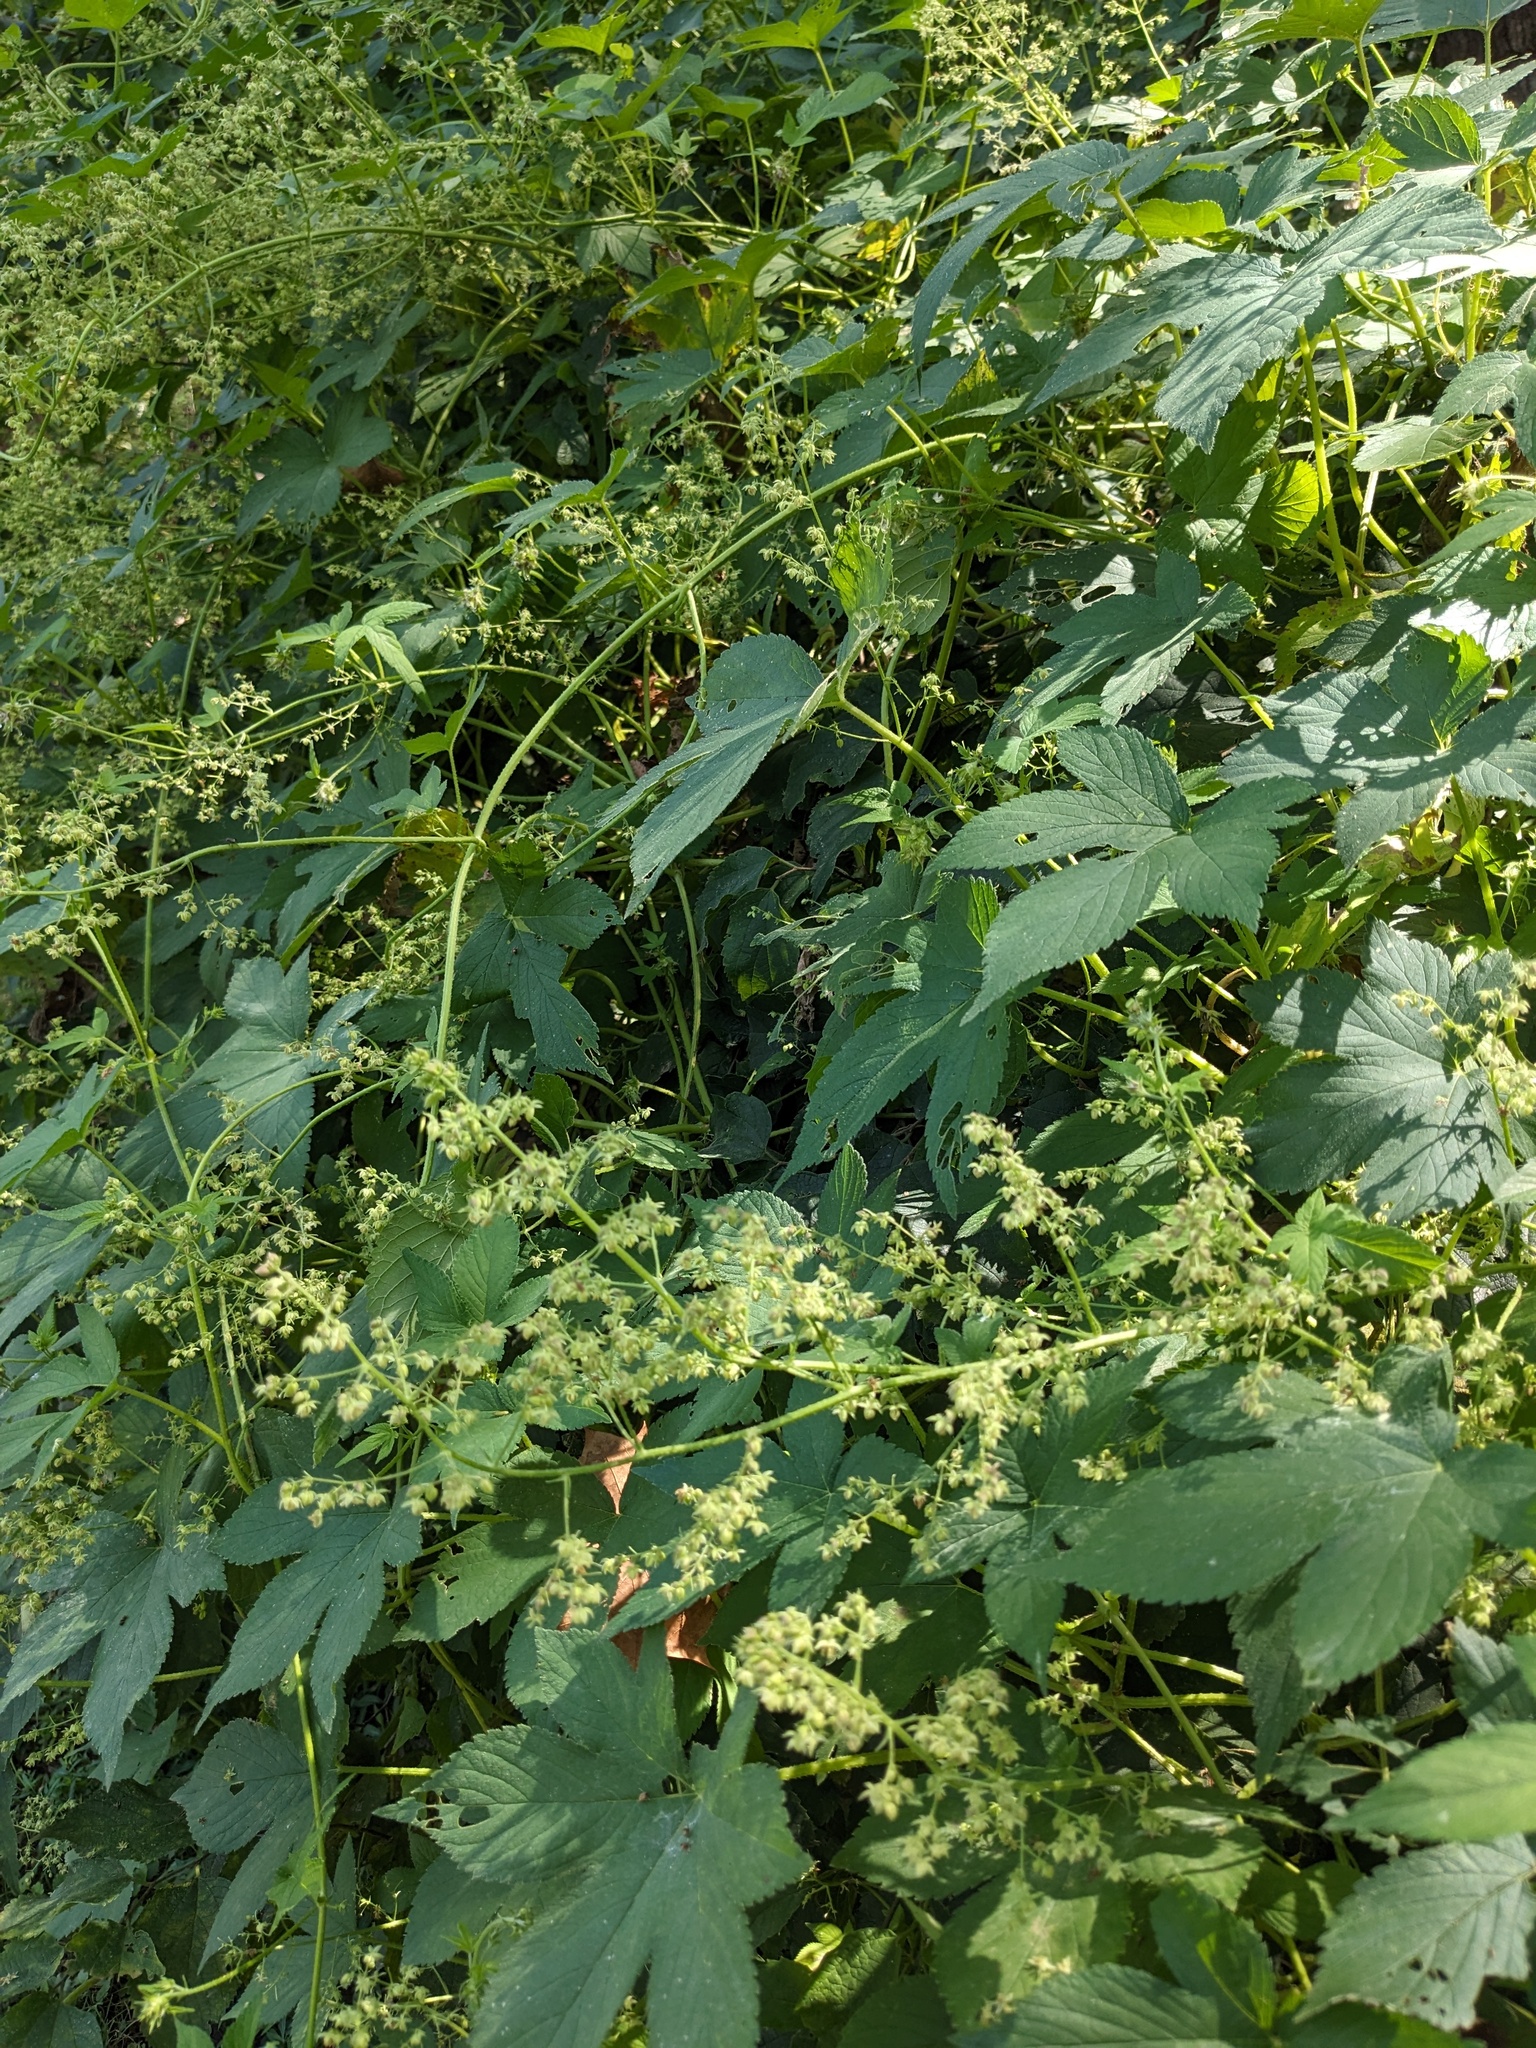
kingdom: Plantae
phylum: Tracheophyta
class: Magnoliopsida
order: Rosales
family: Cannabaceae
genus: Humulus
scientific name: Humulus scandens
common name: Japanese hop
